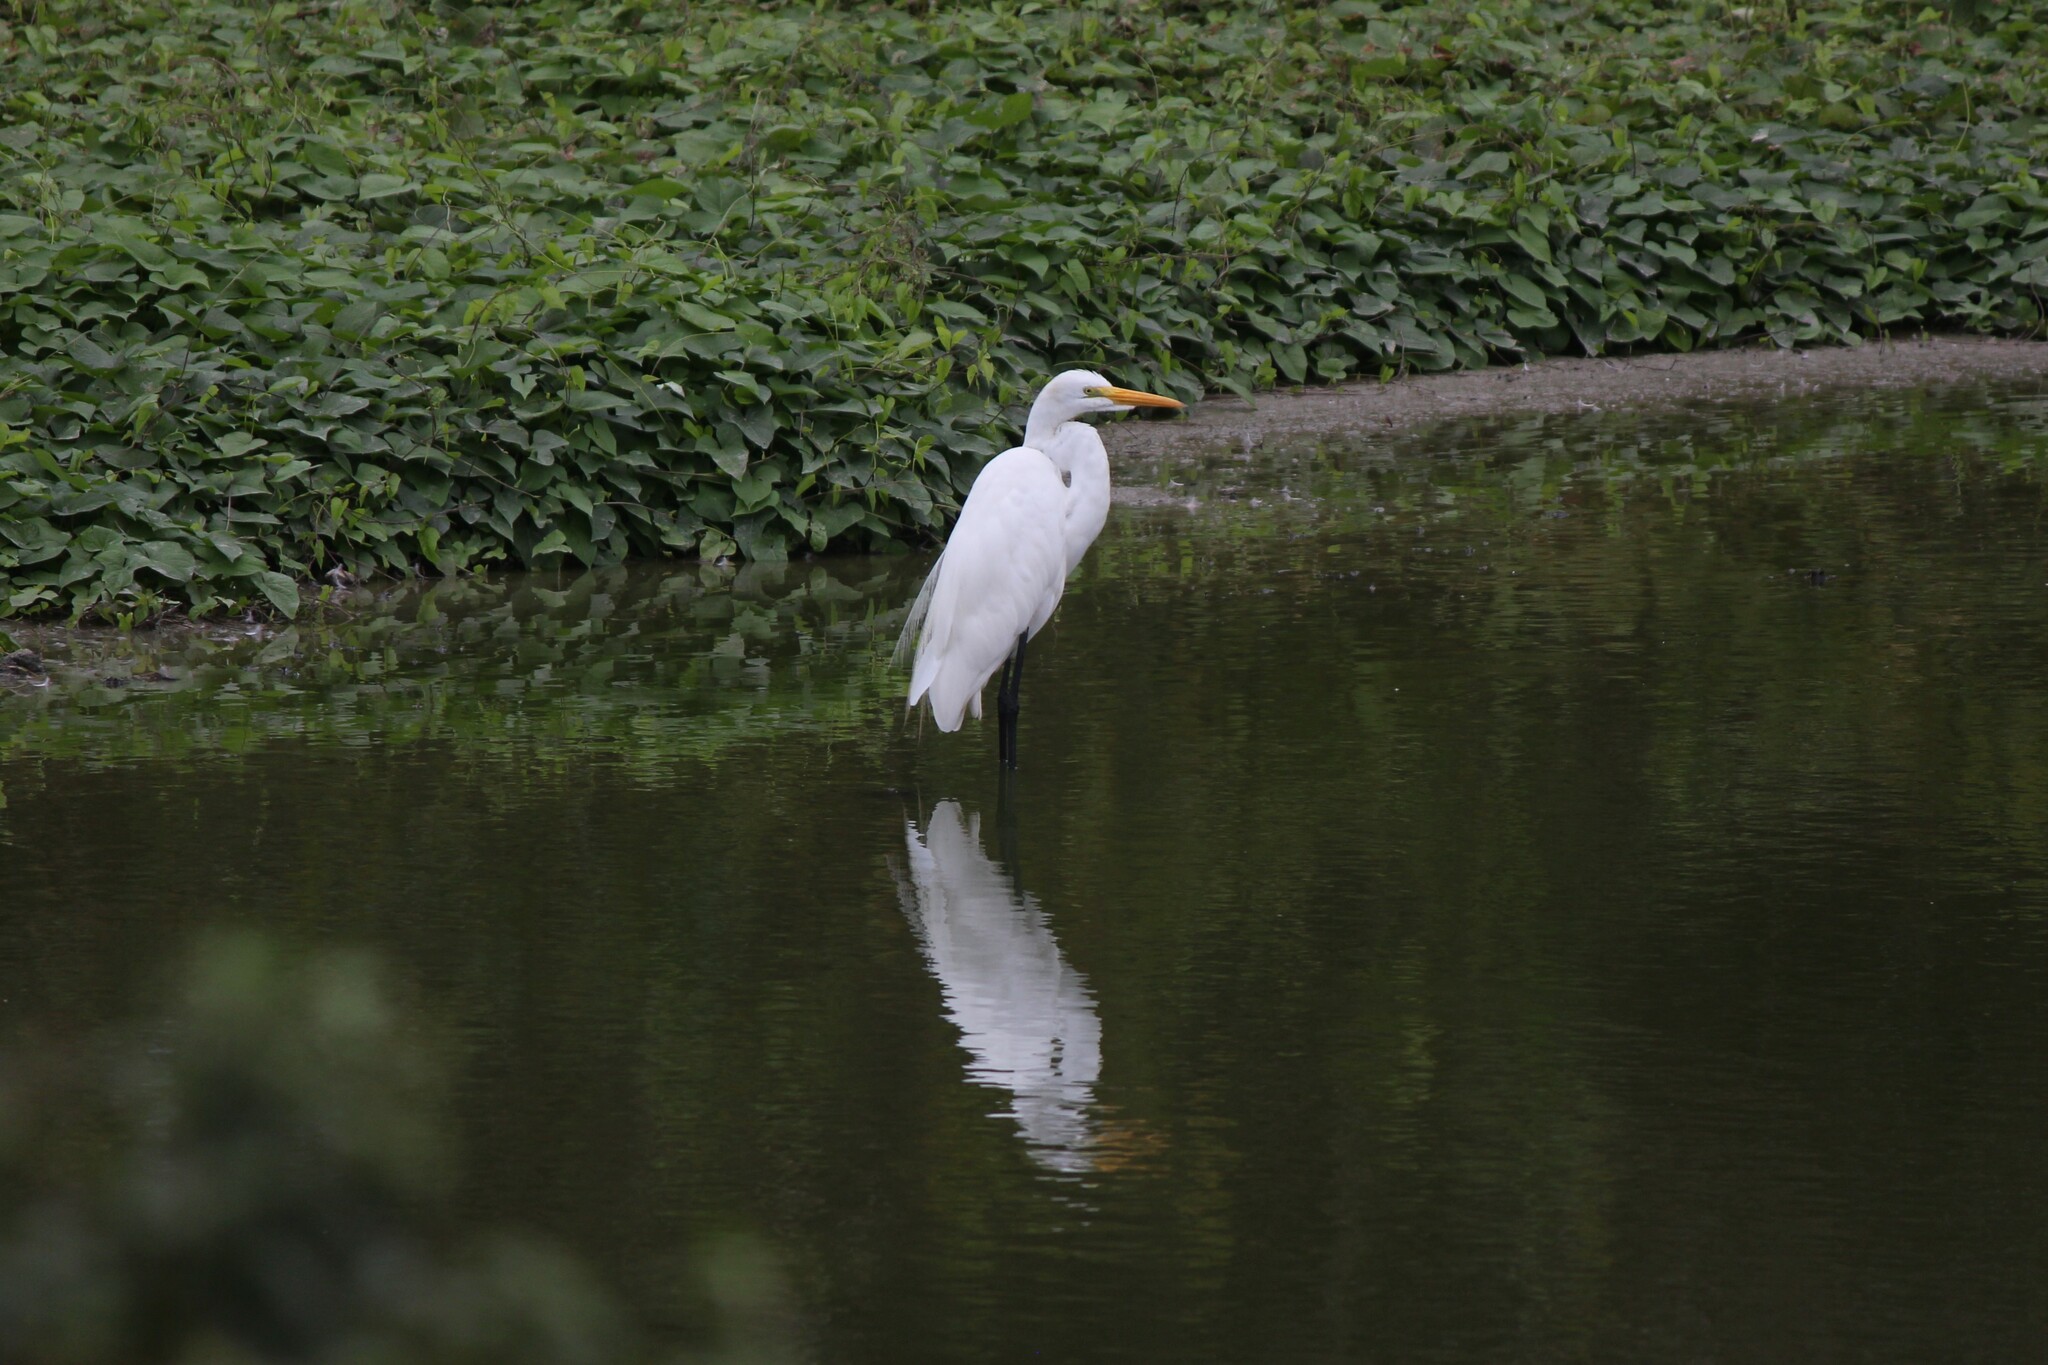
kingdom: Animalia
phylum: Chordata
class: Aves
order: Pelecaniformes
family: Ardeidae
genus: Ardea
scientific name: Ardea alba
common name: Great egret
